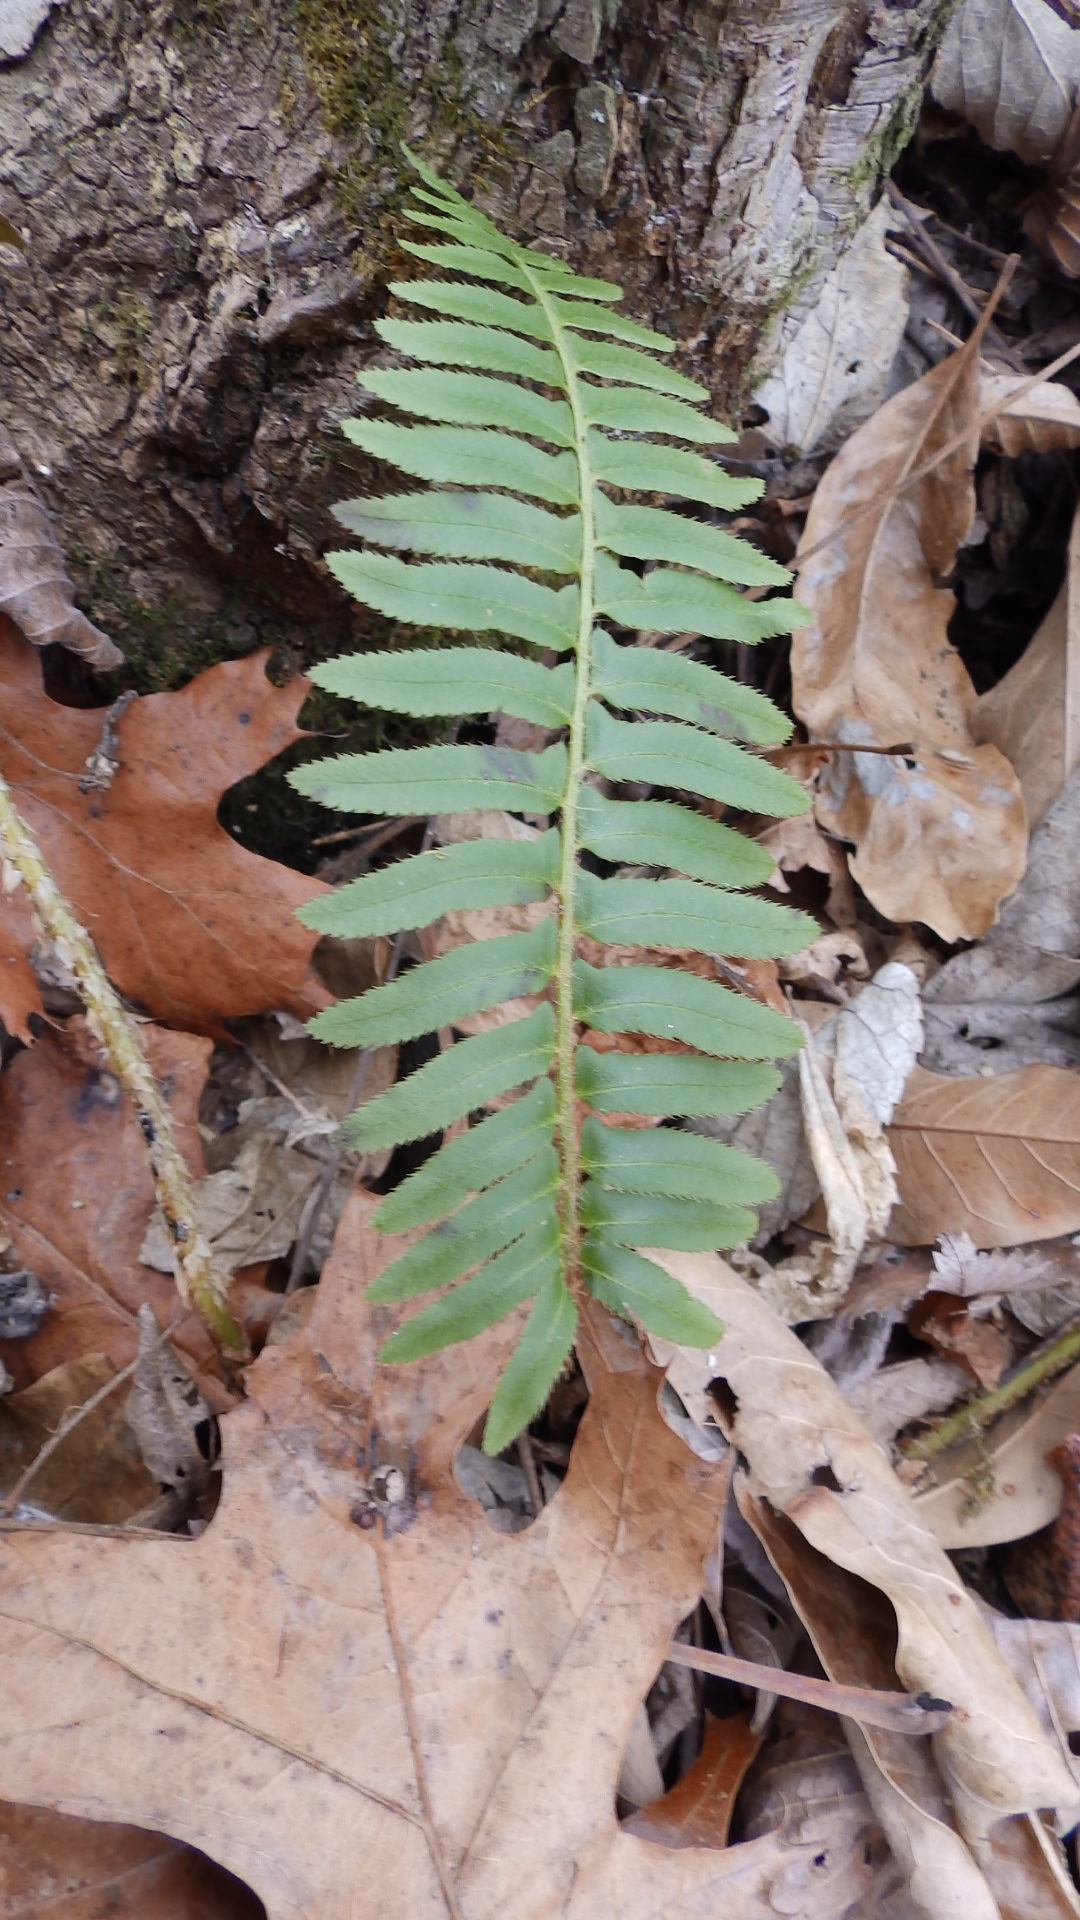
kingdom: Plantae
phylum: Tracheophyta
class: Polypodiopsida
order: Polypodiales
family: Dryopteridaceae
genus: Polystichum
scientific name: Polystichum acrostichoides
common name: Christmas fern
